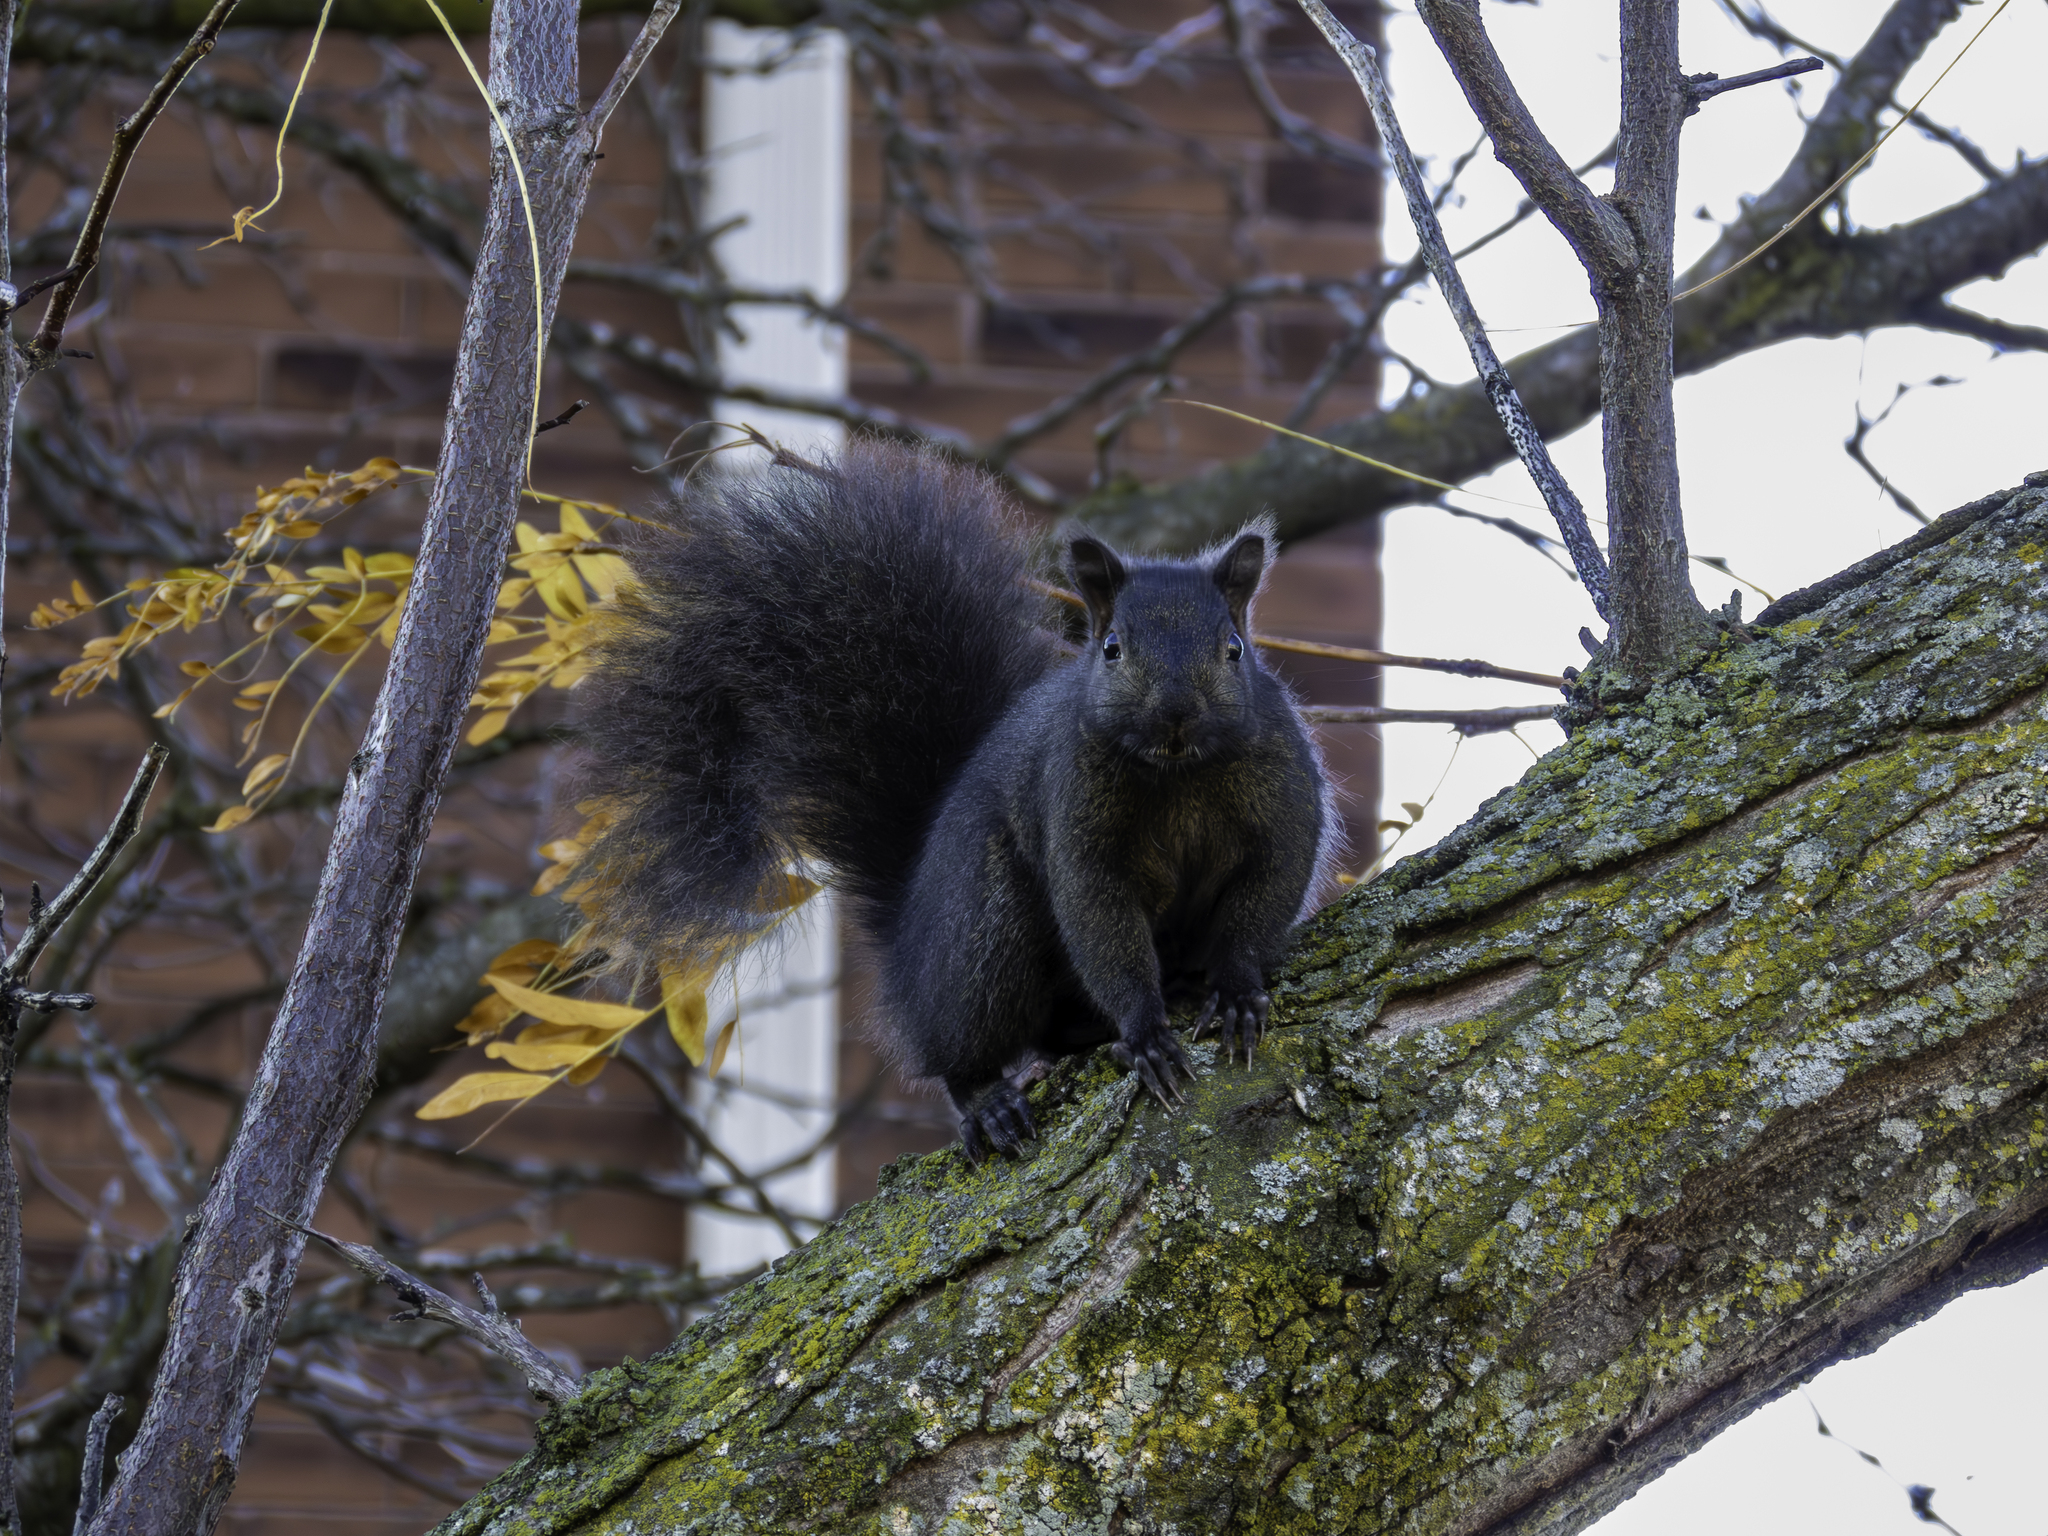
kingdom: Animalia
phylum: Chordata
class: Mammalia
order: Rodentia
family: Sciuridae
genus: Sciurus
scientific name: Sciurus carolinensis
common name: Eastern gray squirrel
